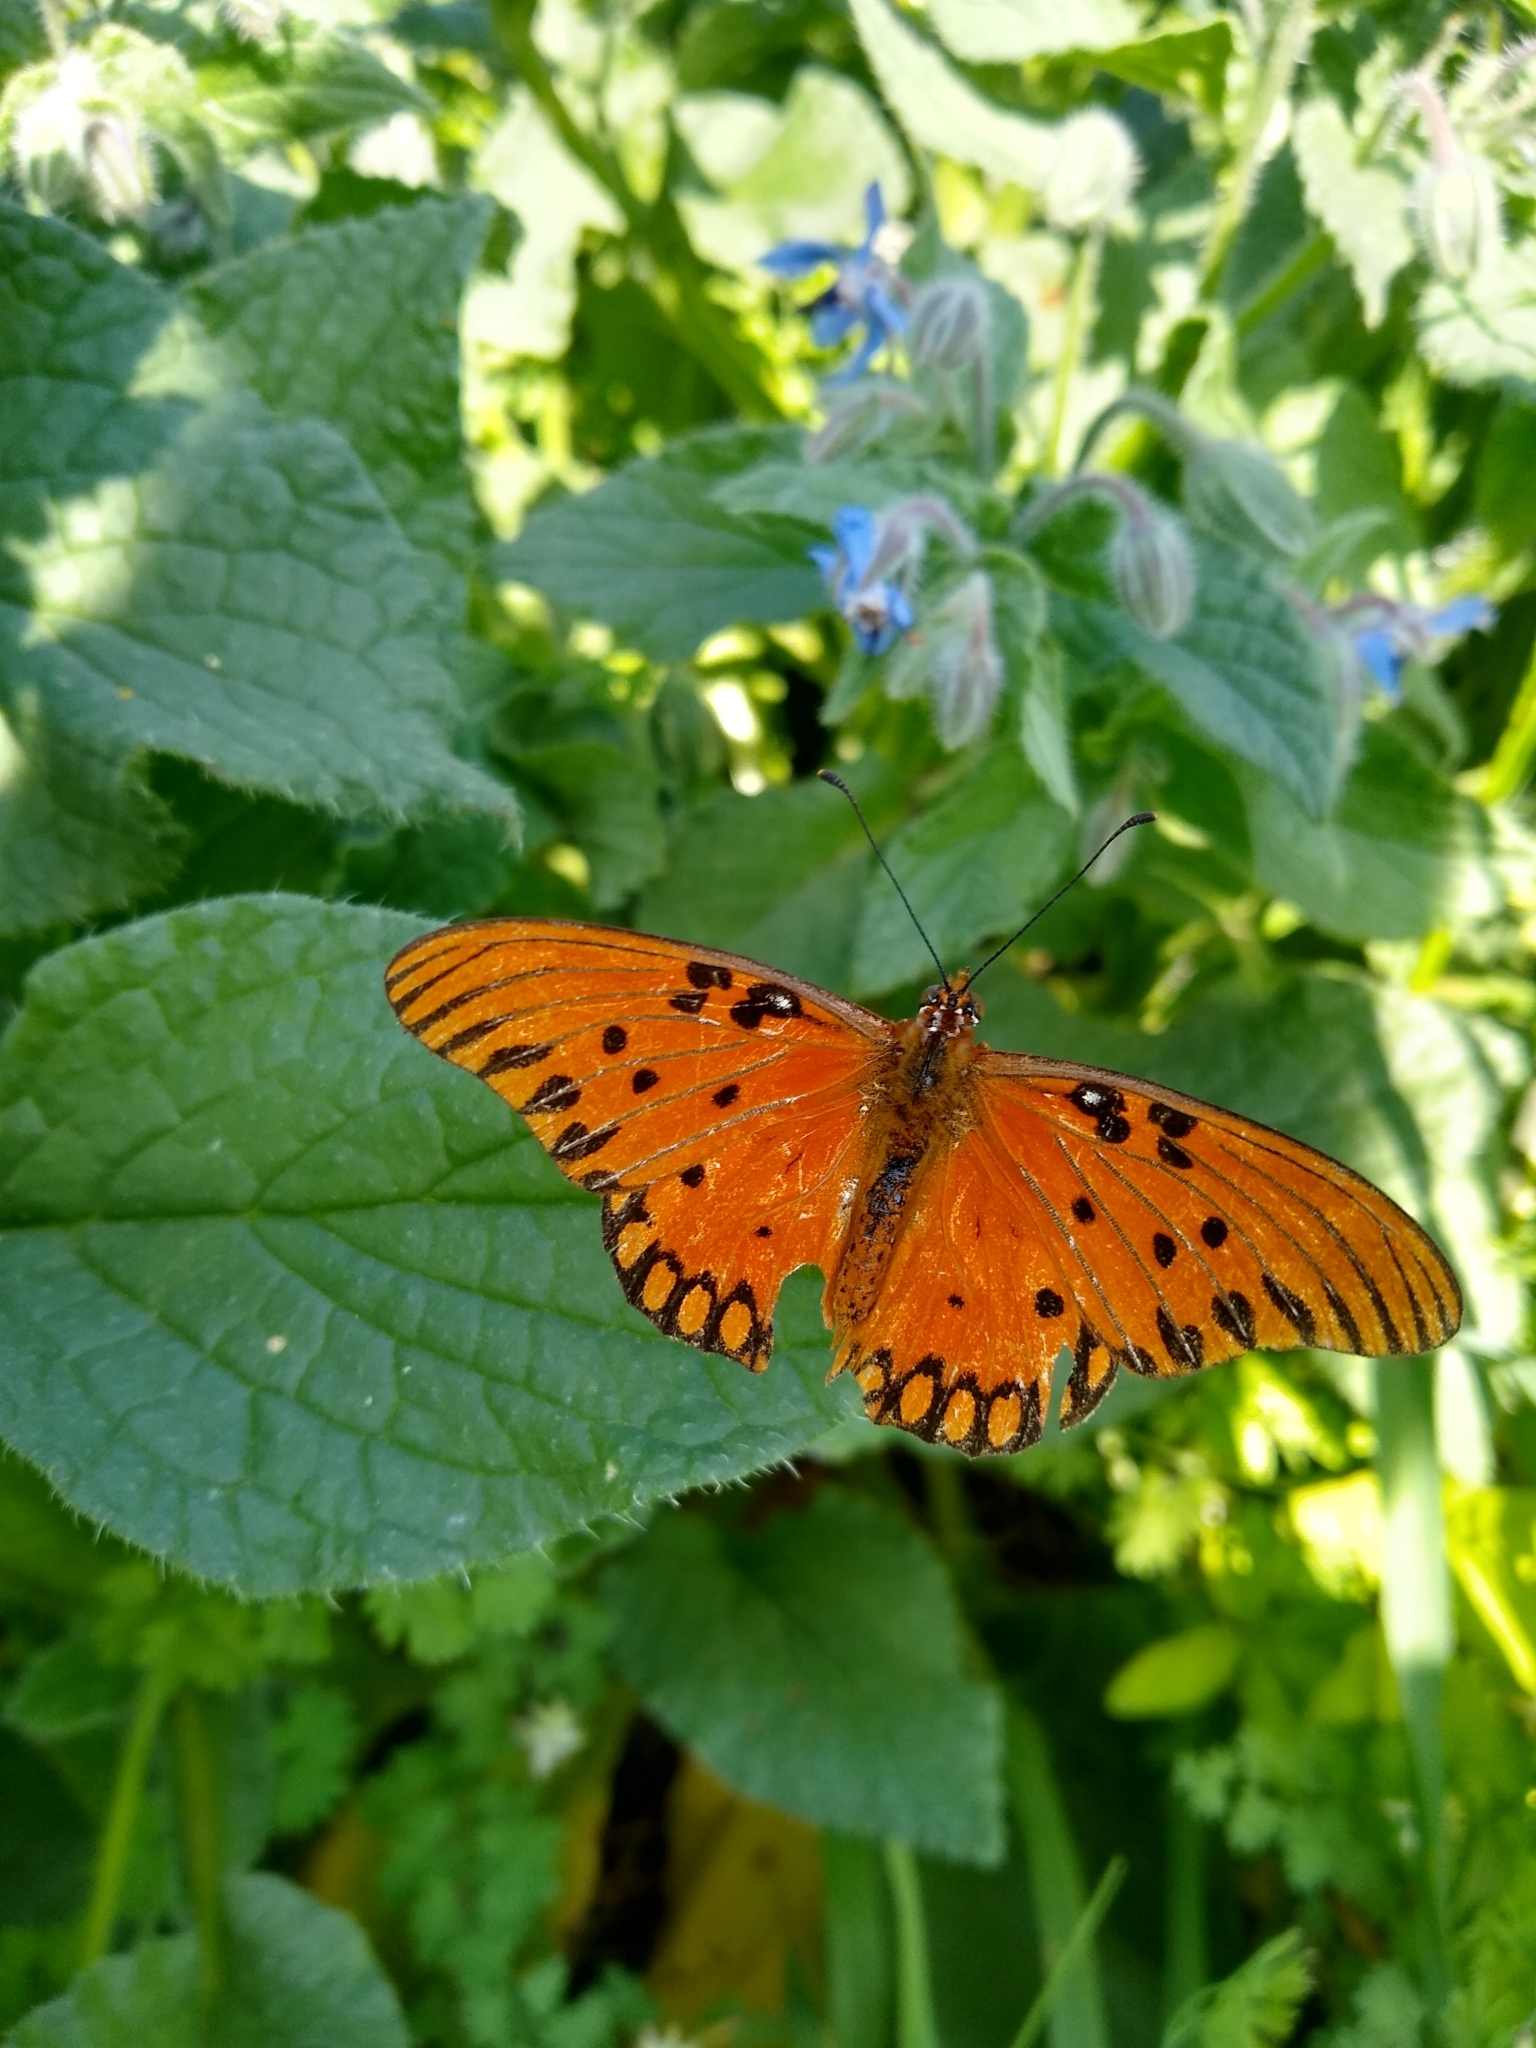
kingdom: Animalia
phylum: Arthropoda
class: Insecta
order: Lepidoptera
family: Nymphalidae
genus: Dione
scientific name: Dione vanillae
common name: Gulf fritillary
